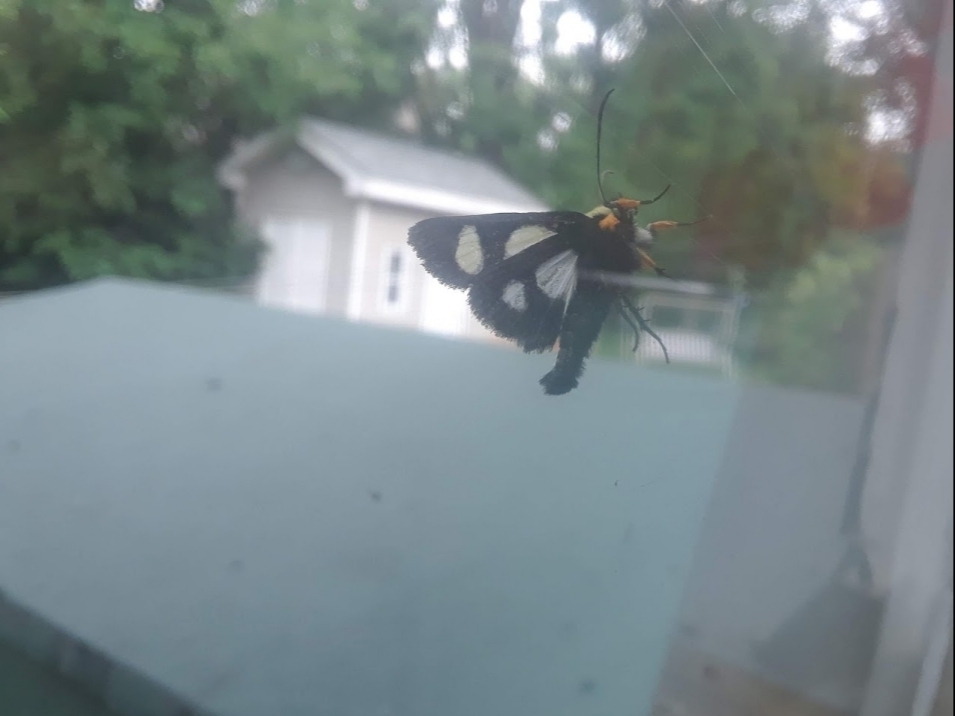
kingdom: Animalia
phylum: Arthropoda
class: Insecta
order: Lepidoptera
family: Noctuidae
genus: Alypia
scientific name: Alypia octomaculata
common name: Eight-spotted forester
